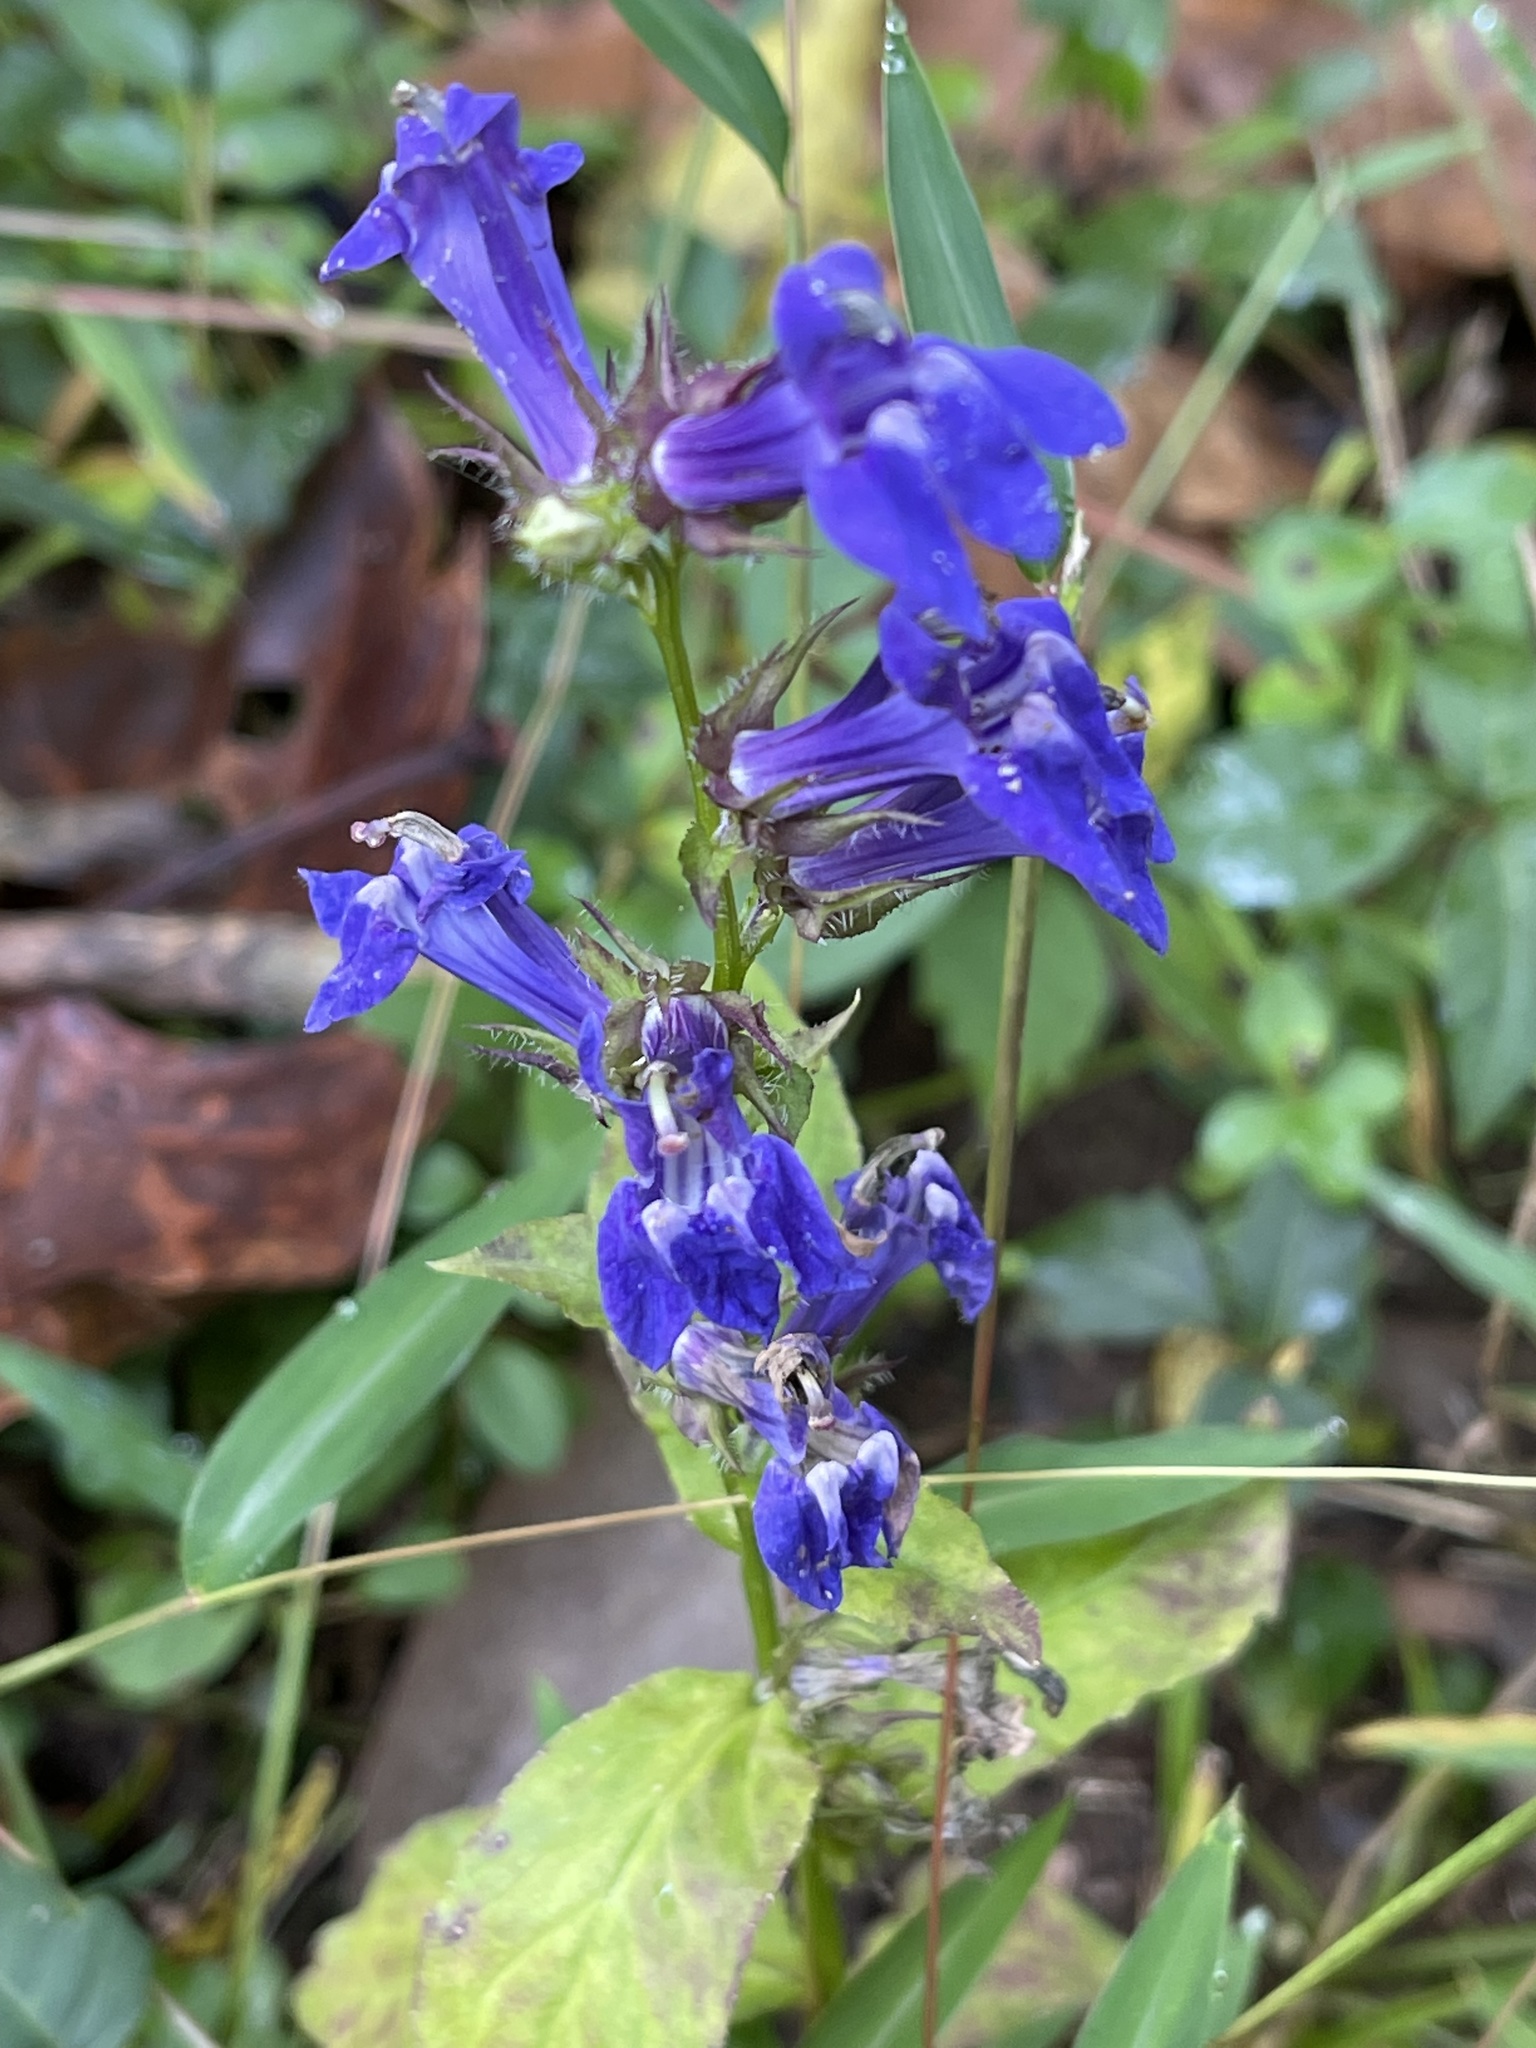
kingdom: Plantae
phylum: Tracheophyta
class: Magnoliopsida
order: Asterales
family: Campanulaceae
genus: Lobelia
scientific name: Lobelia siphilitica
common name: Great lobelia
